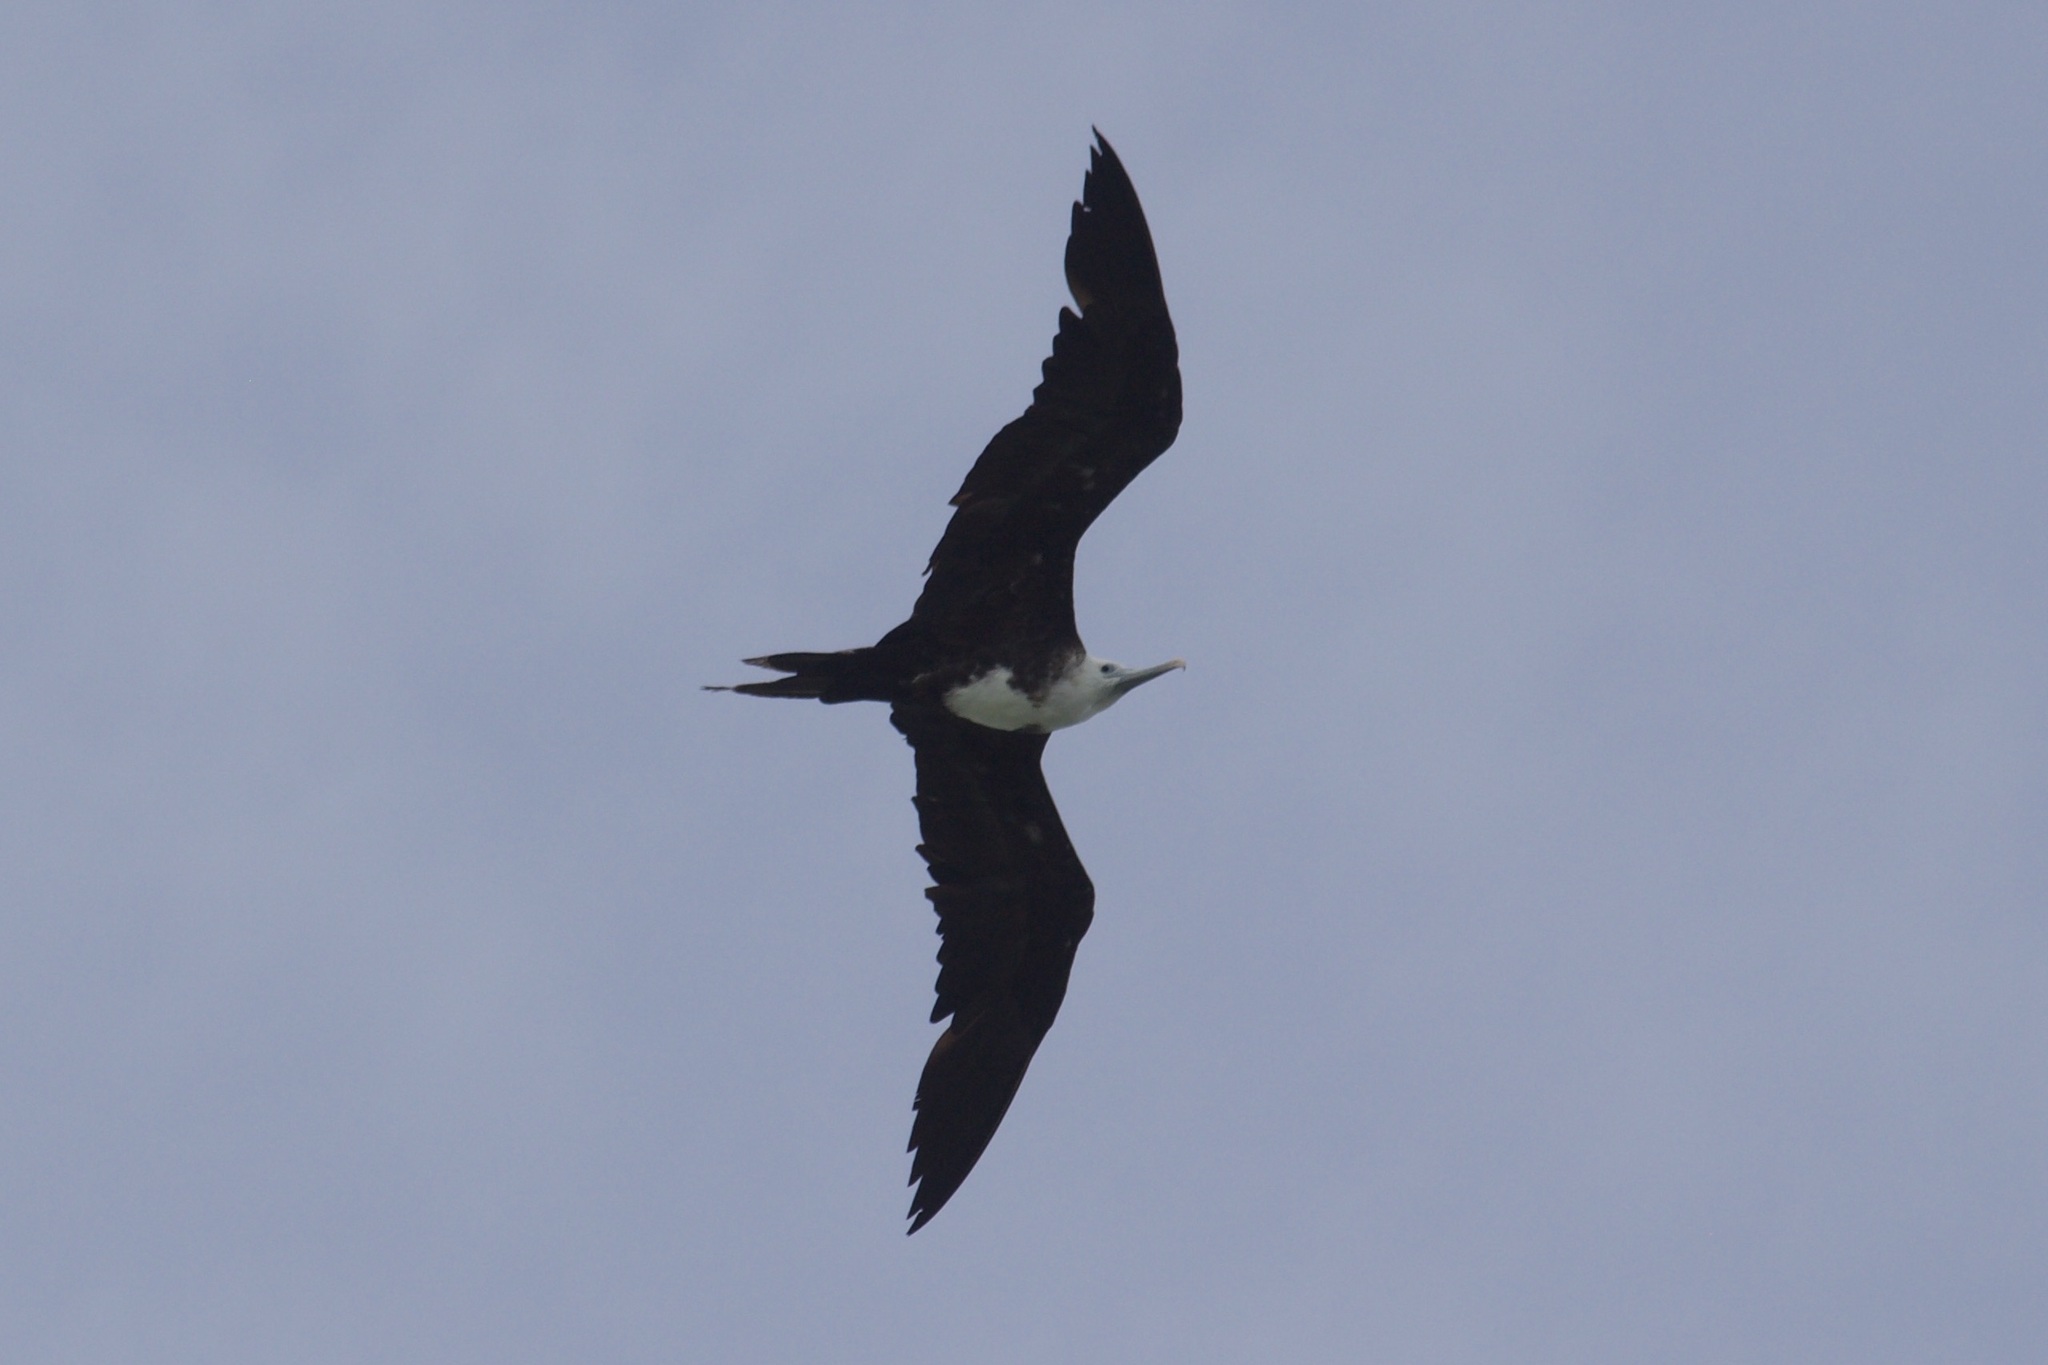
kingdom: Animalia
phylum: Chordata
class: Aves
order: Suliformes
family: Fregatidae
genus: Fregata
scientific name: Fregata magnificens
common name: Magnificent frigatebird
